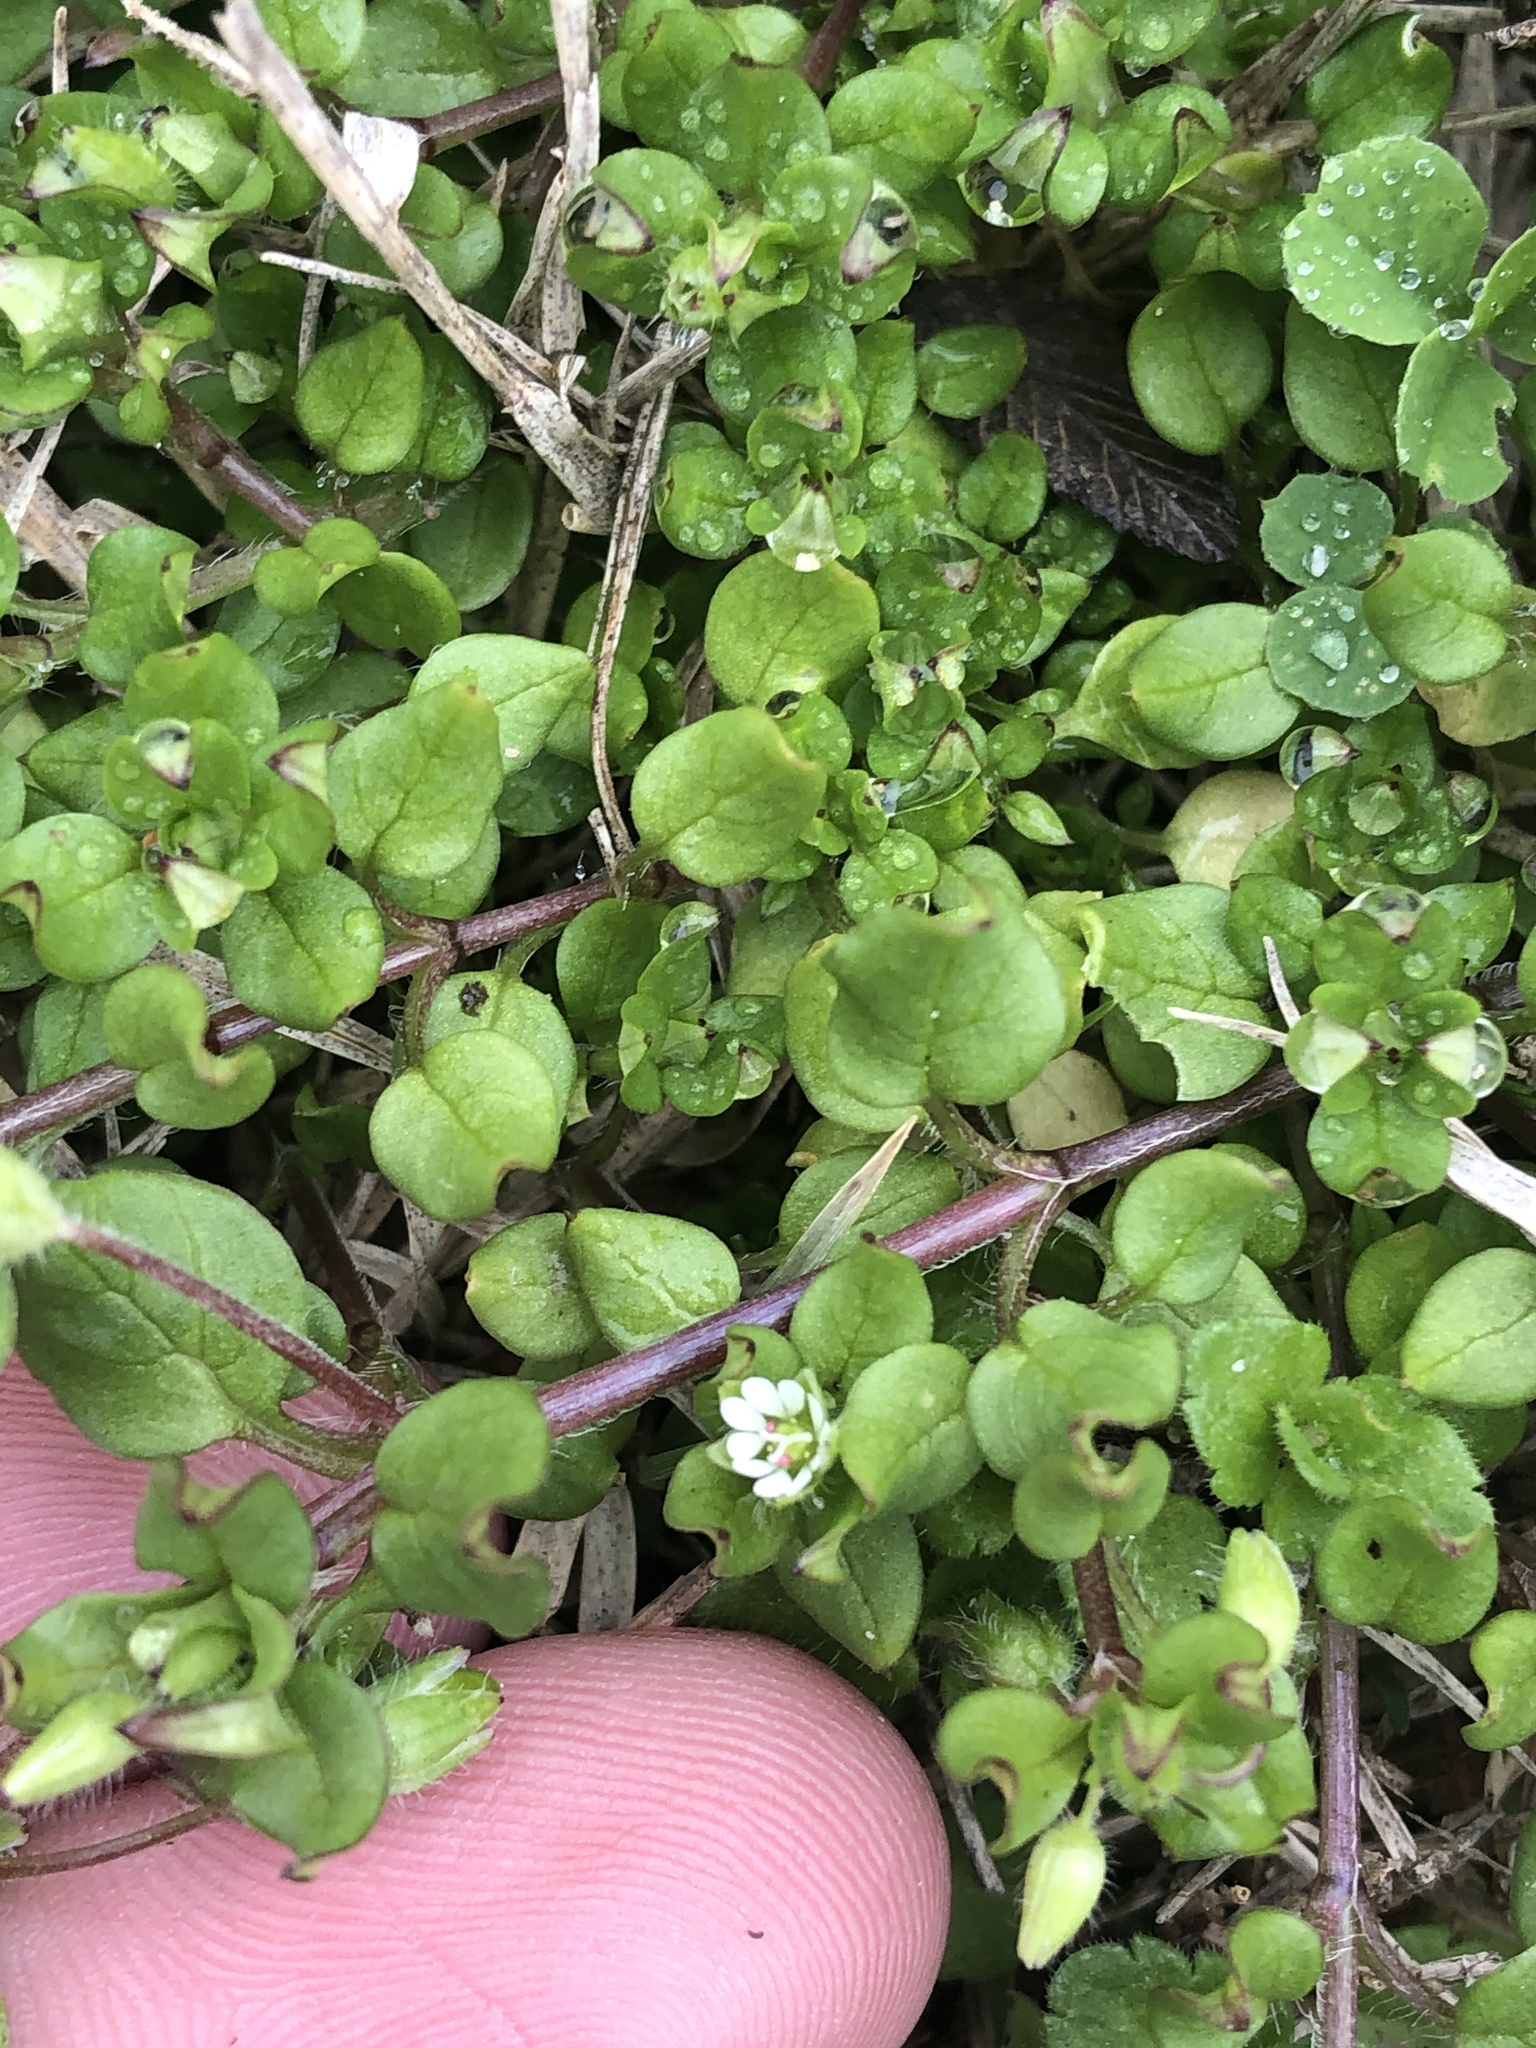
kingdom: Plantae
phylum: Tracheophyta
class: Magnoliopsida
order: Caryophyllales
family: Caryophyllaceae
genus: Stellaria
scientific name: Stellaria media
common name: Common chickweed
